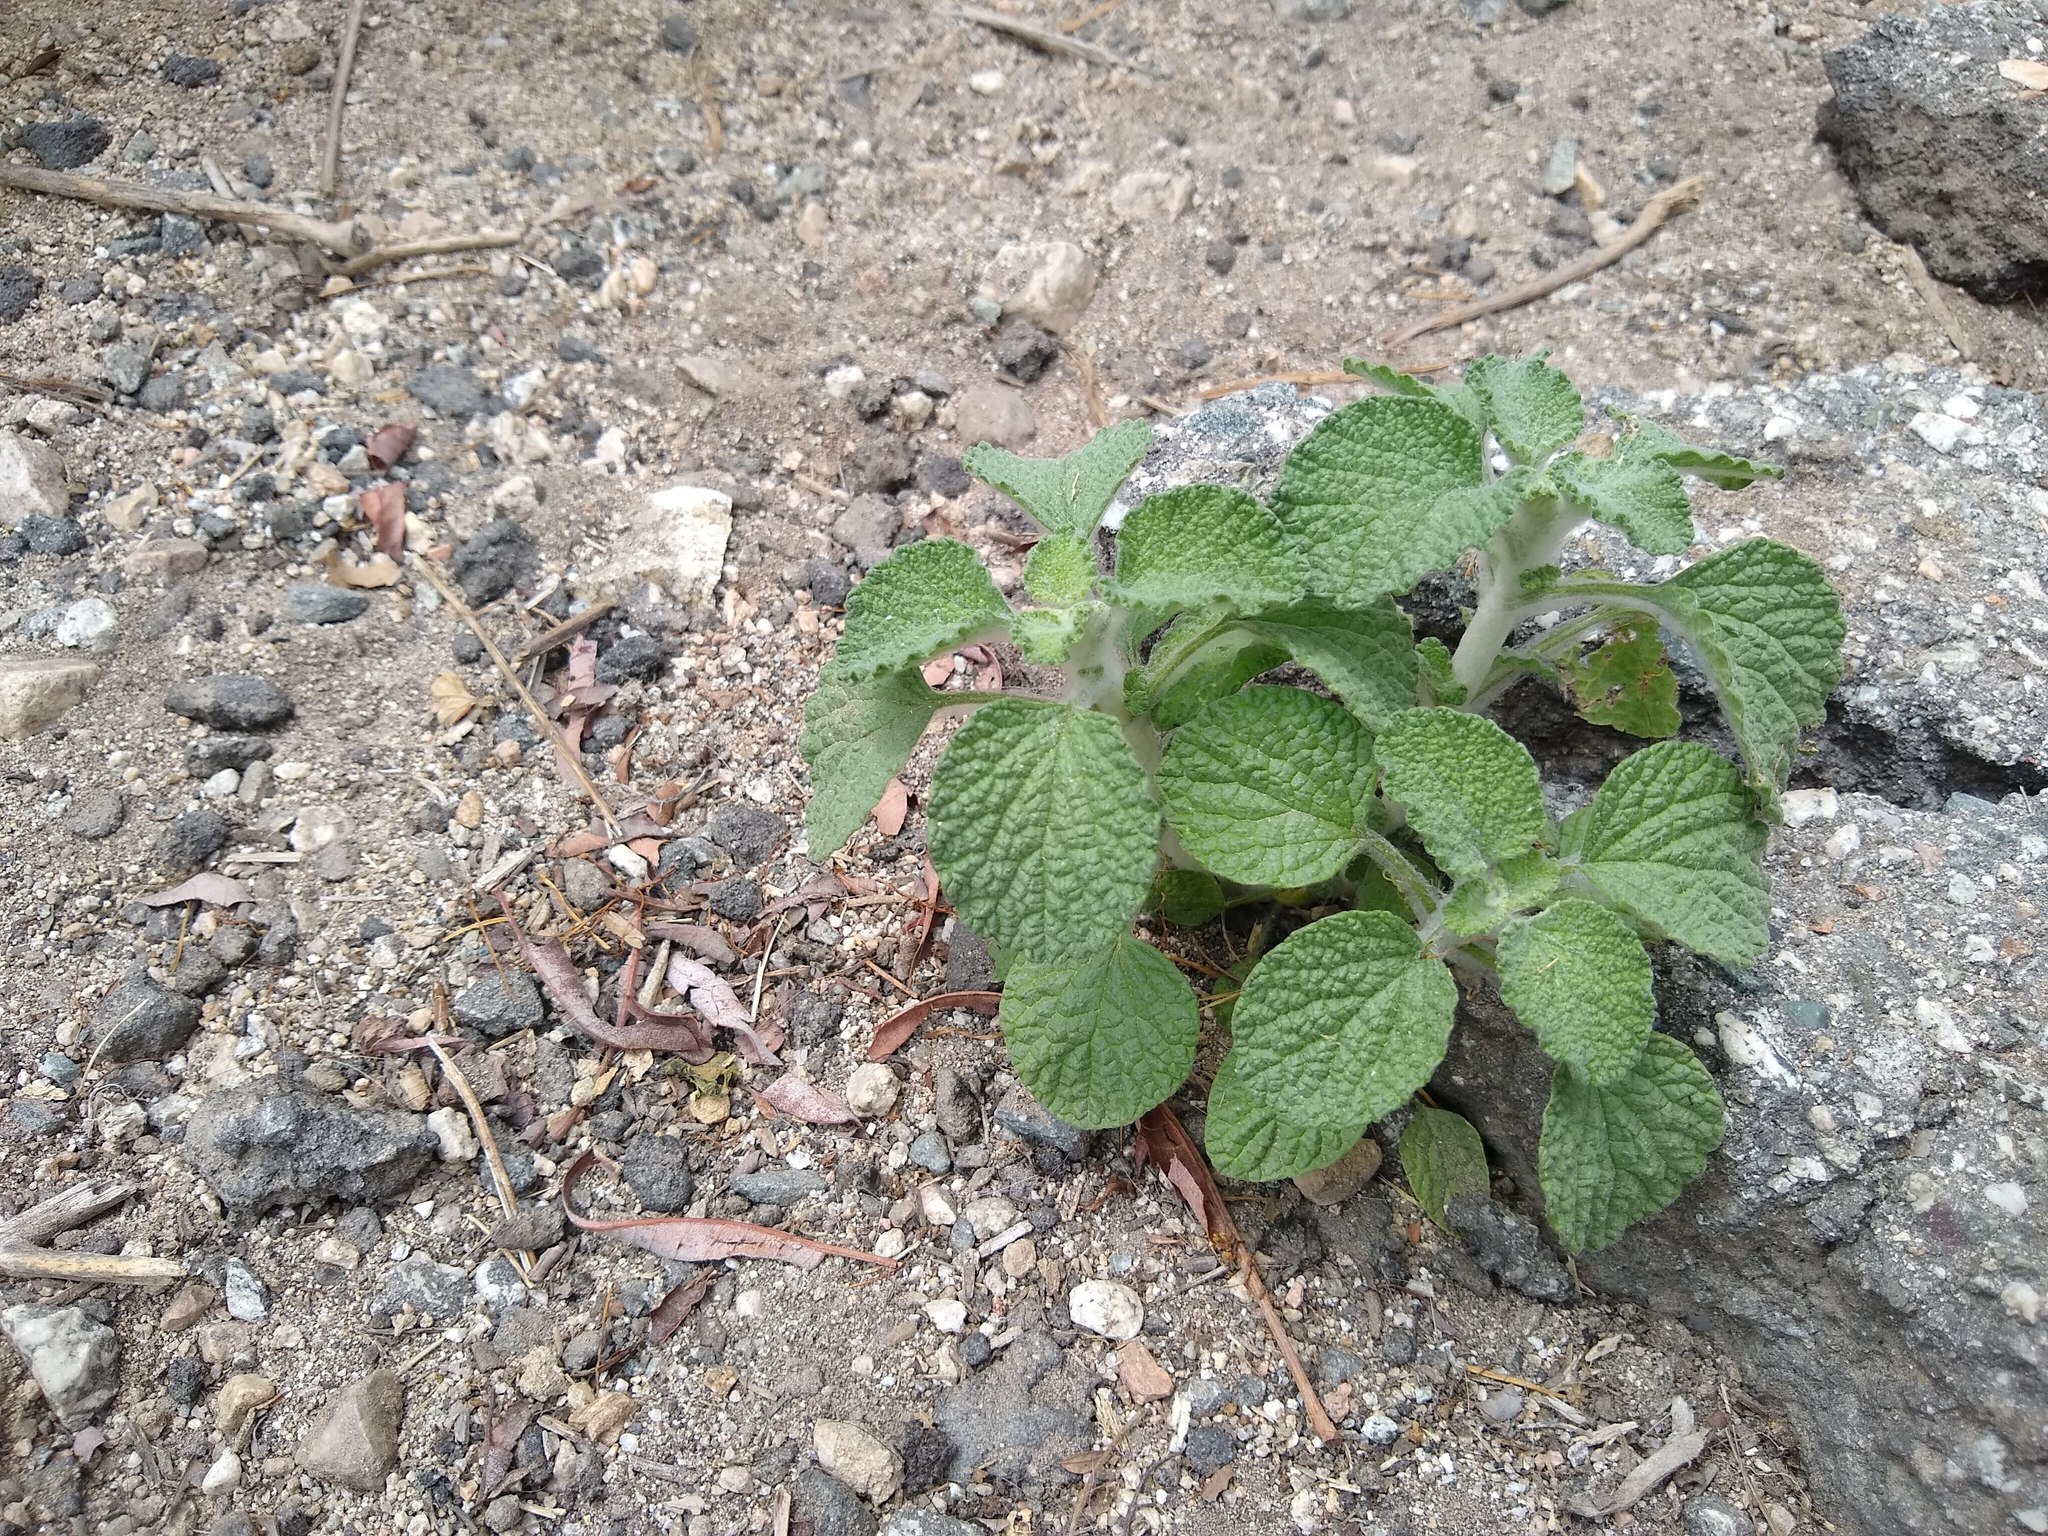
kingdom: Plantae
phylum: Tracheophyta
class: Magnoliopsida
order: Lamiales
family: Lamiaceae
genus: Marrubium
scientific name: Marrubium vulgare
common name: Horehound
